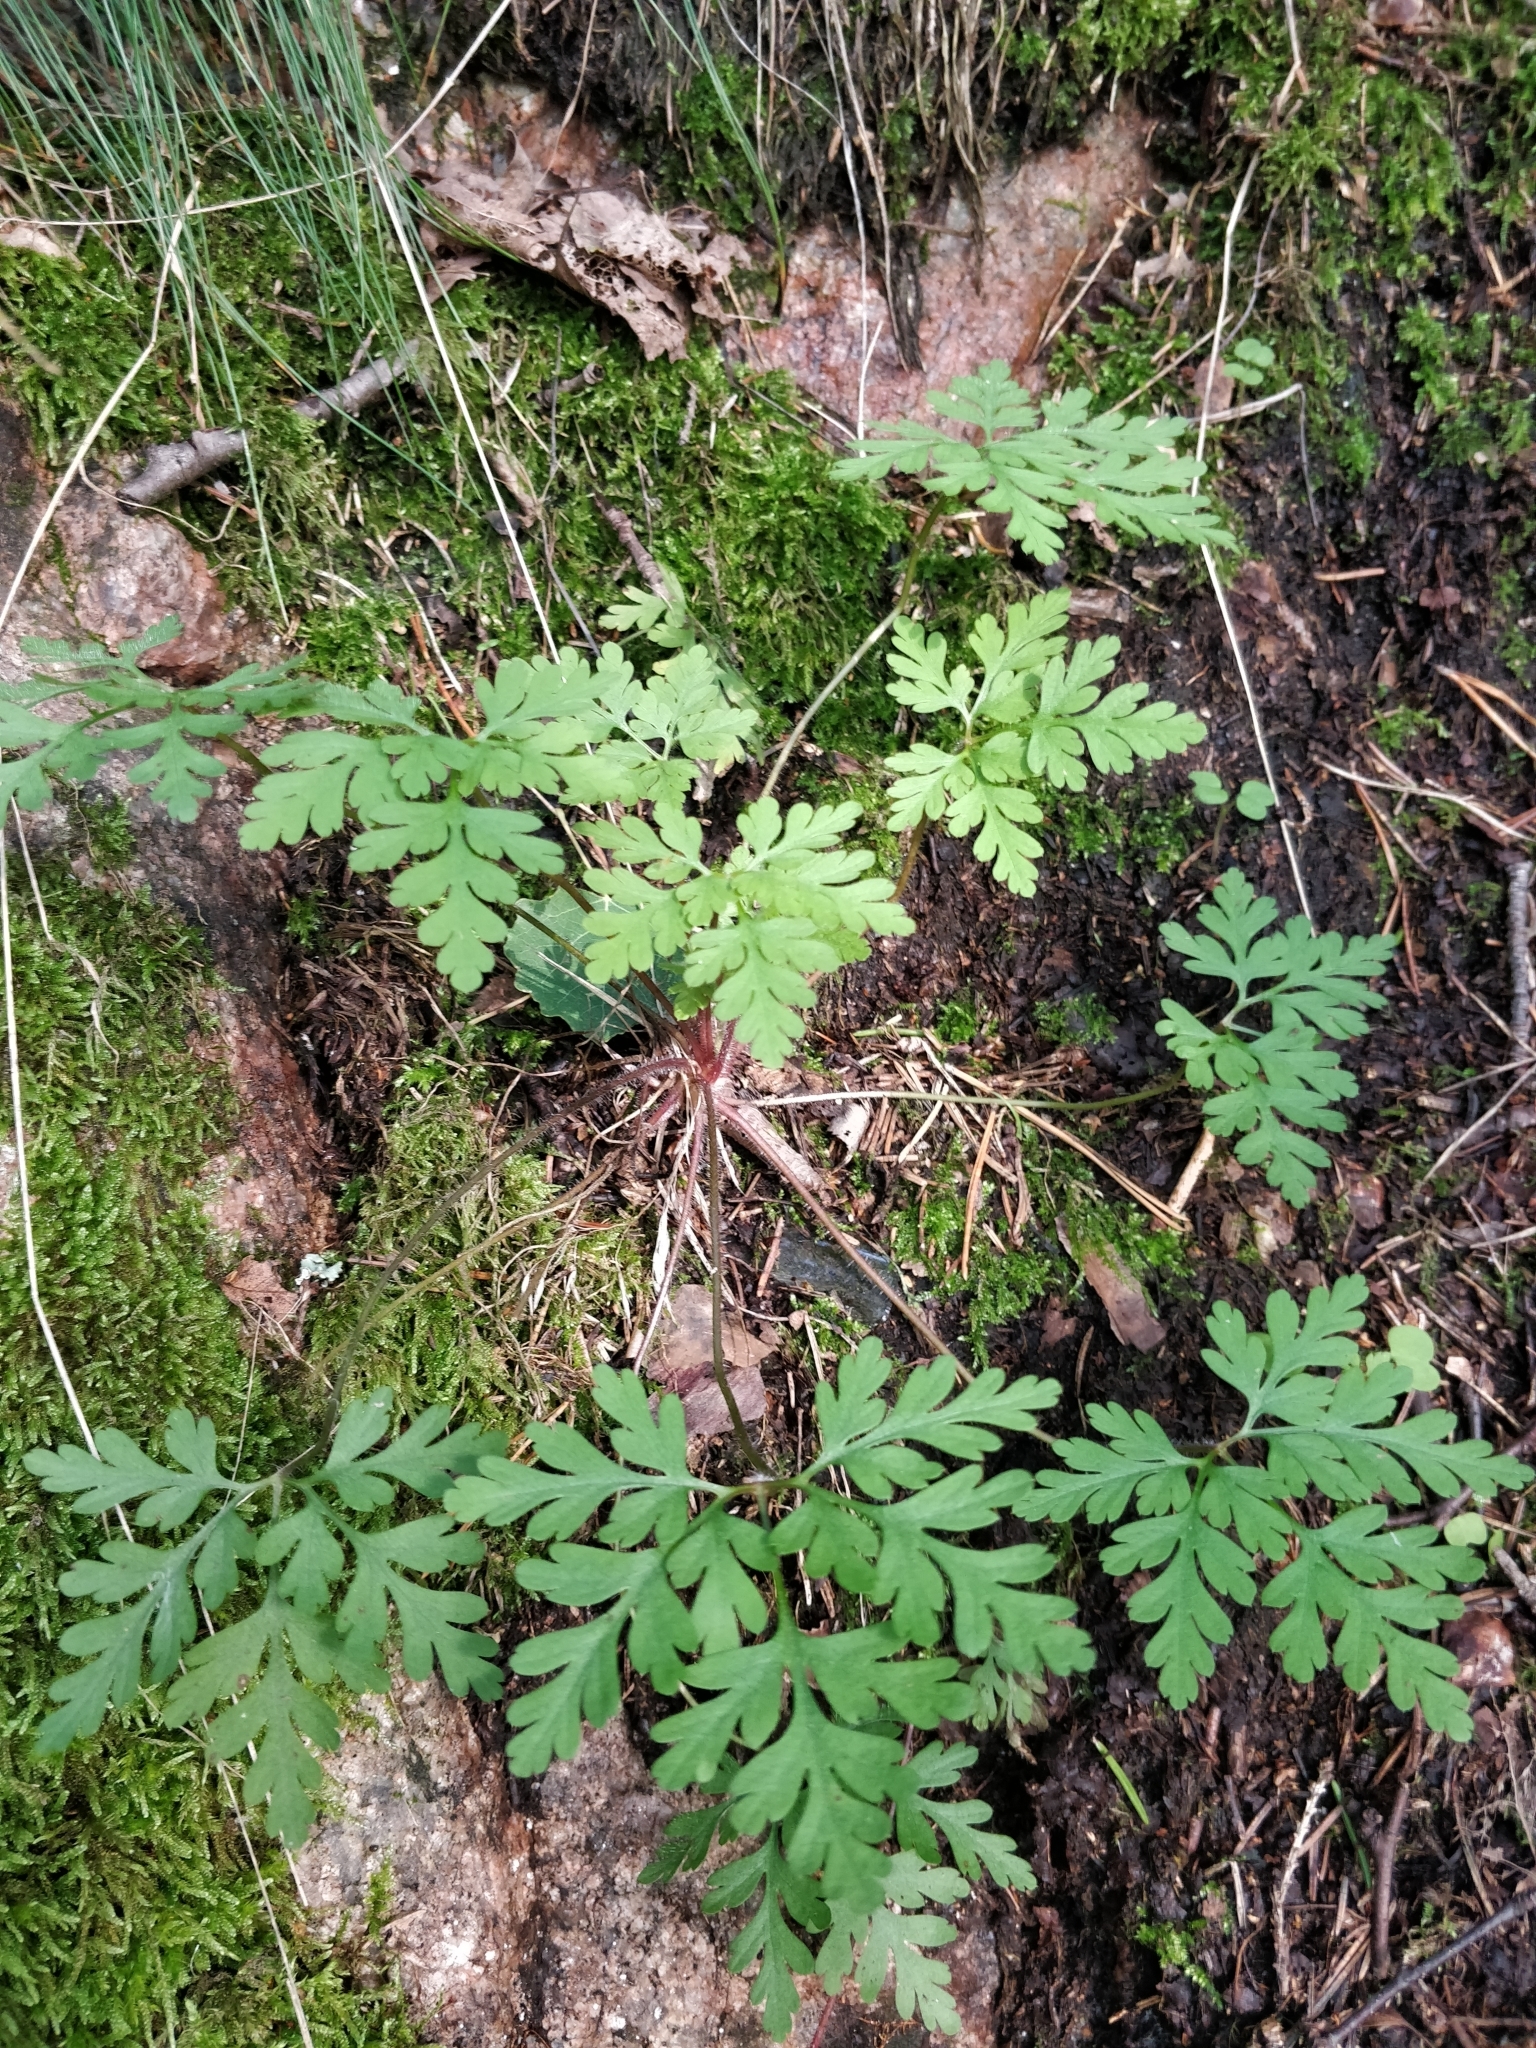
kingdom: Plantae
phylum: Tracheophyta
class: Magnoliopsida
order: Geraniales
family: Geraniaceae
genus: Geranium
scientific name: Geranium robertianum
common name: Herb-robert
